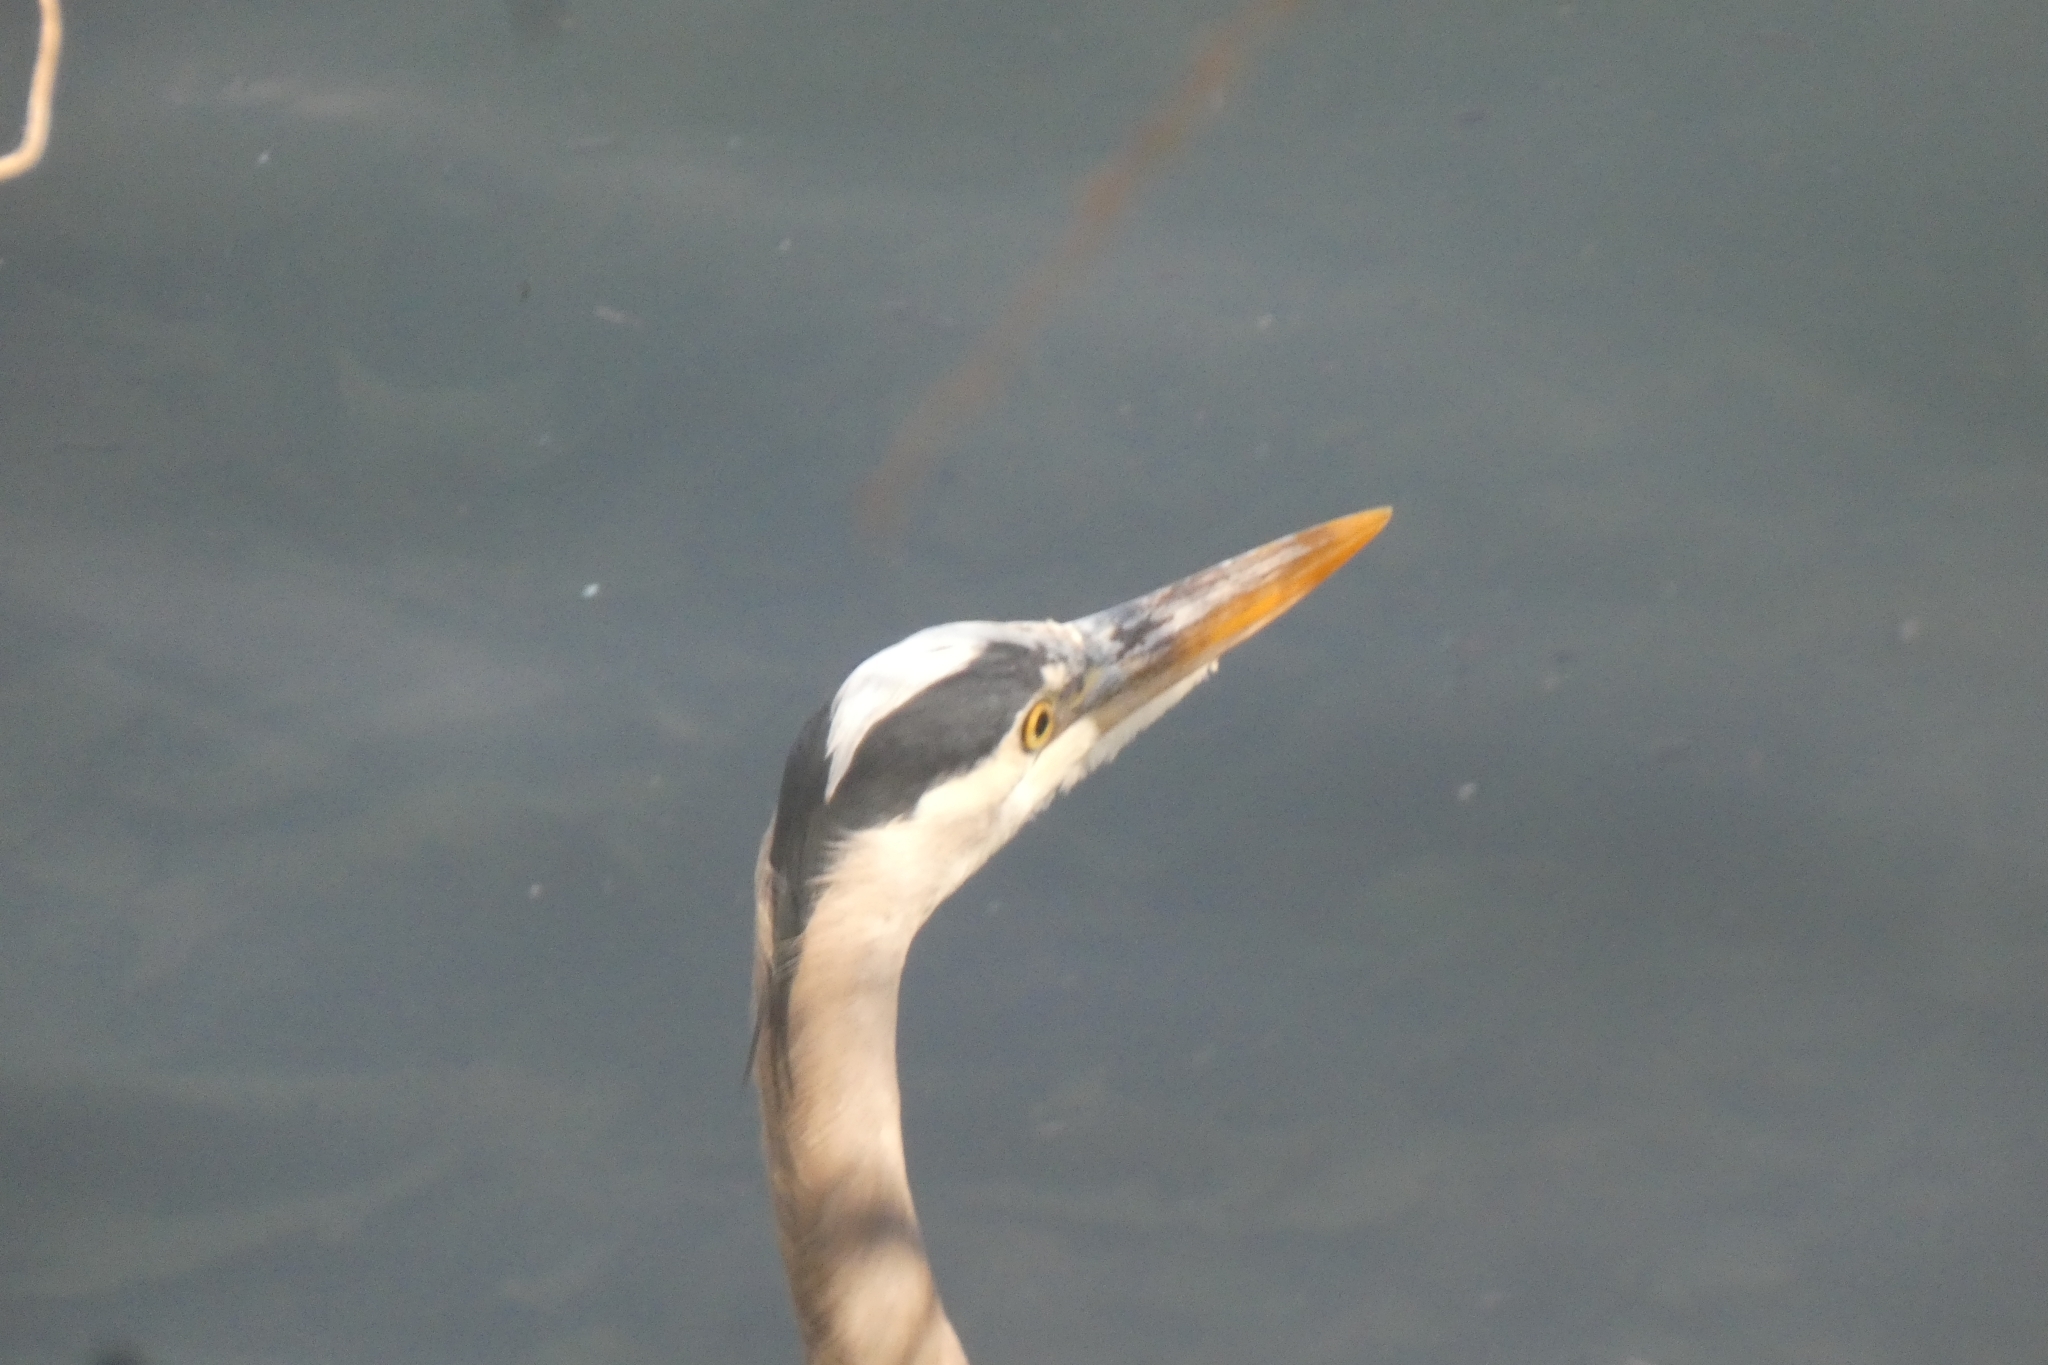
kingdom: Animalia
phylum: Chordata
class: Aves
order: Pelecaniformes
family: Ardeidae
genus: Ardea
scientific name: Ardea herodias
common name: Great blue heron
